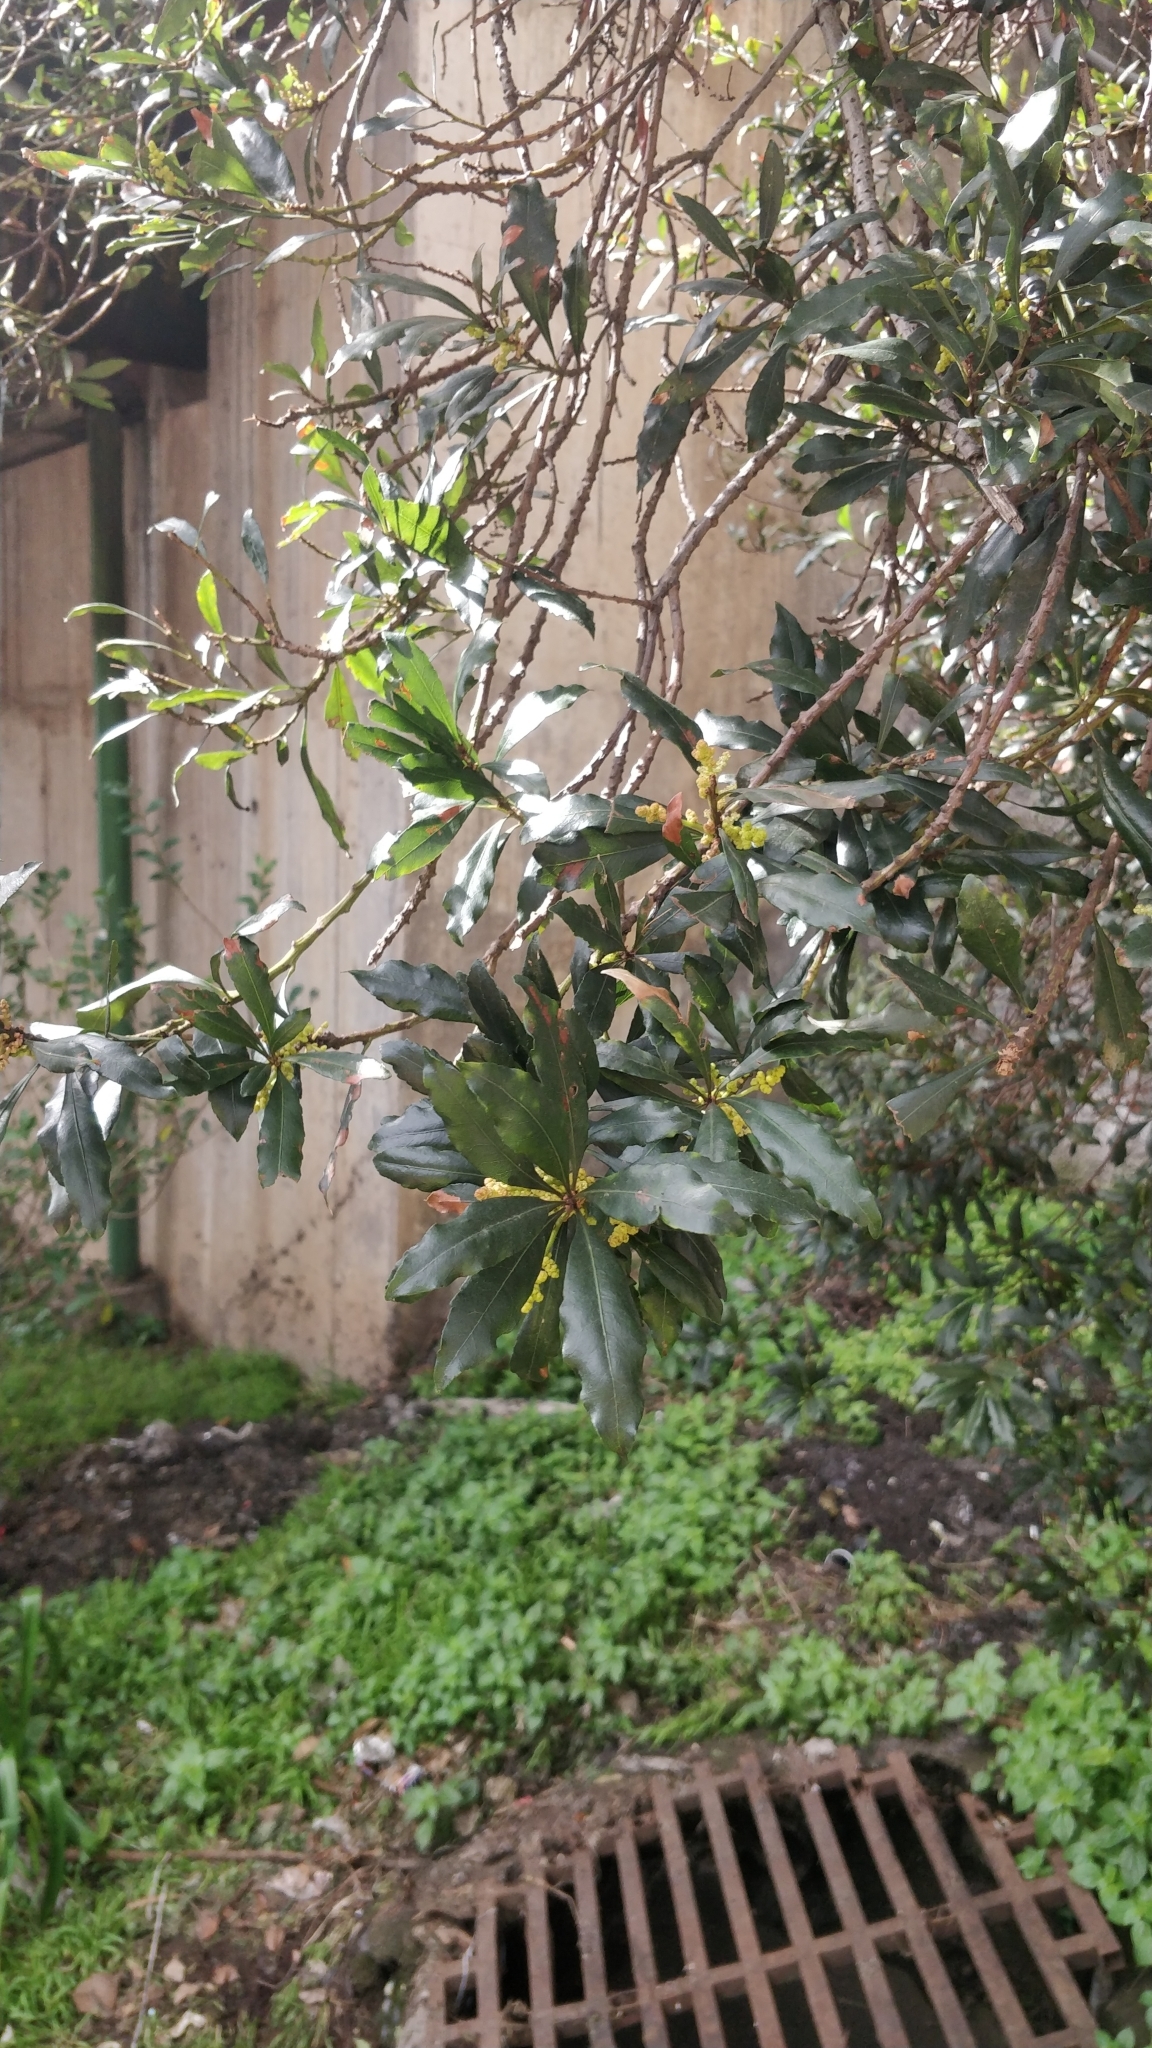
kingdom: Plantae
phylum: Tracheophyta
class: Magnoliopsida
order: Fagales
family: Myricaceae
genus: Morella
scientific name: Morella faya
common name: Firetree
